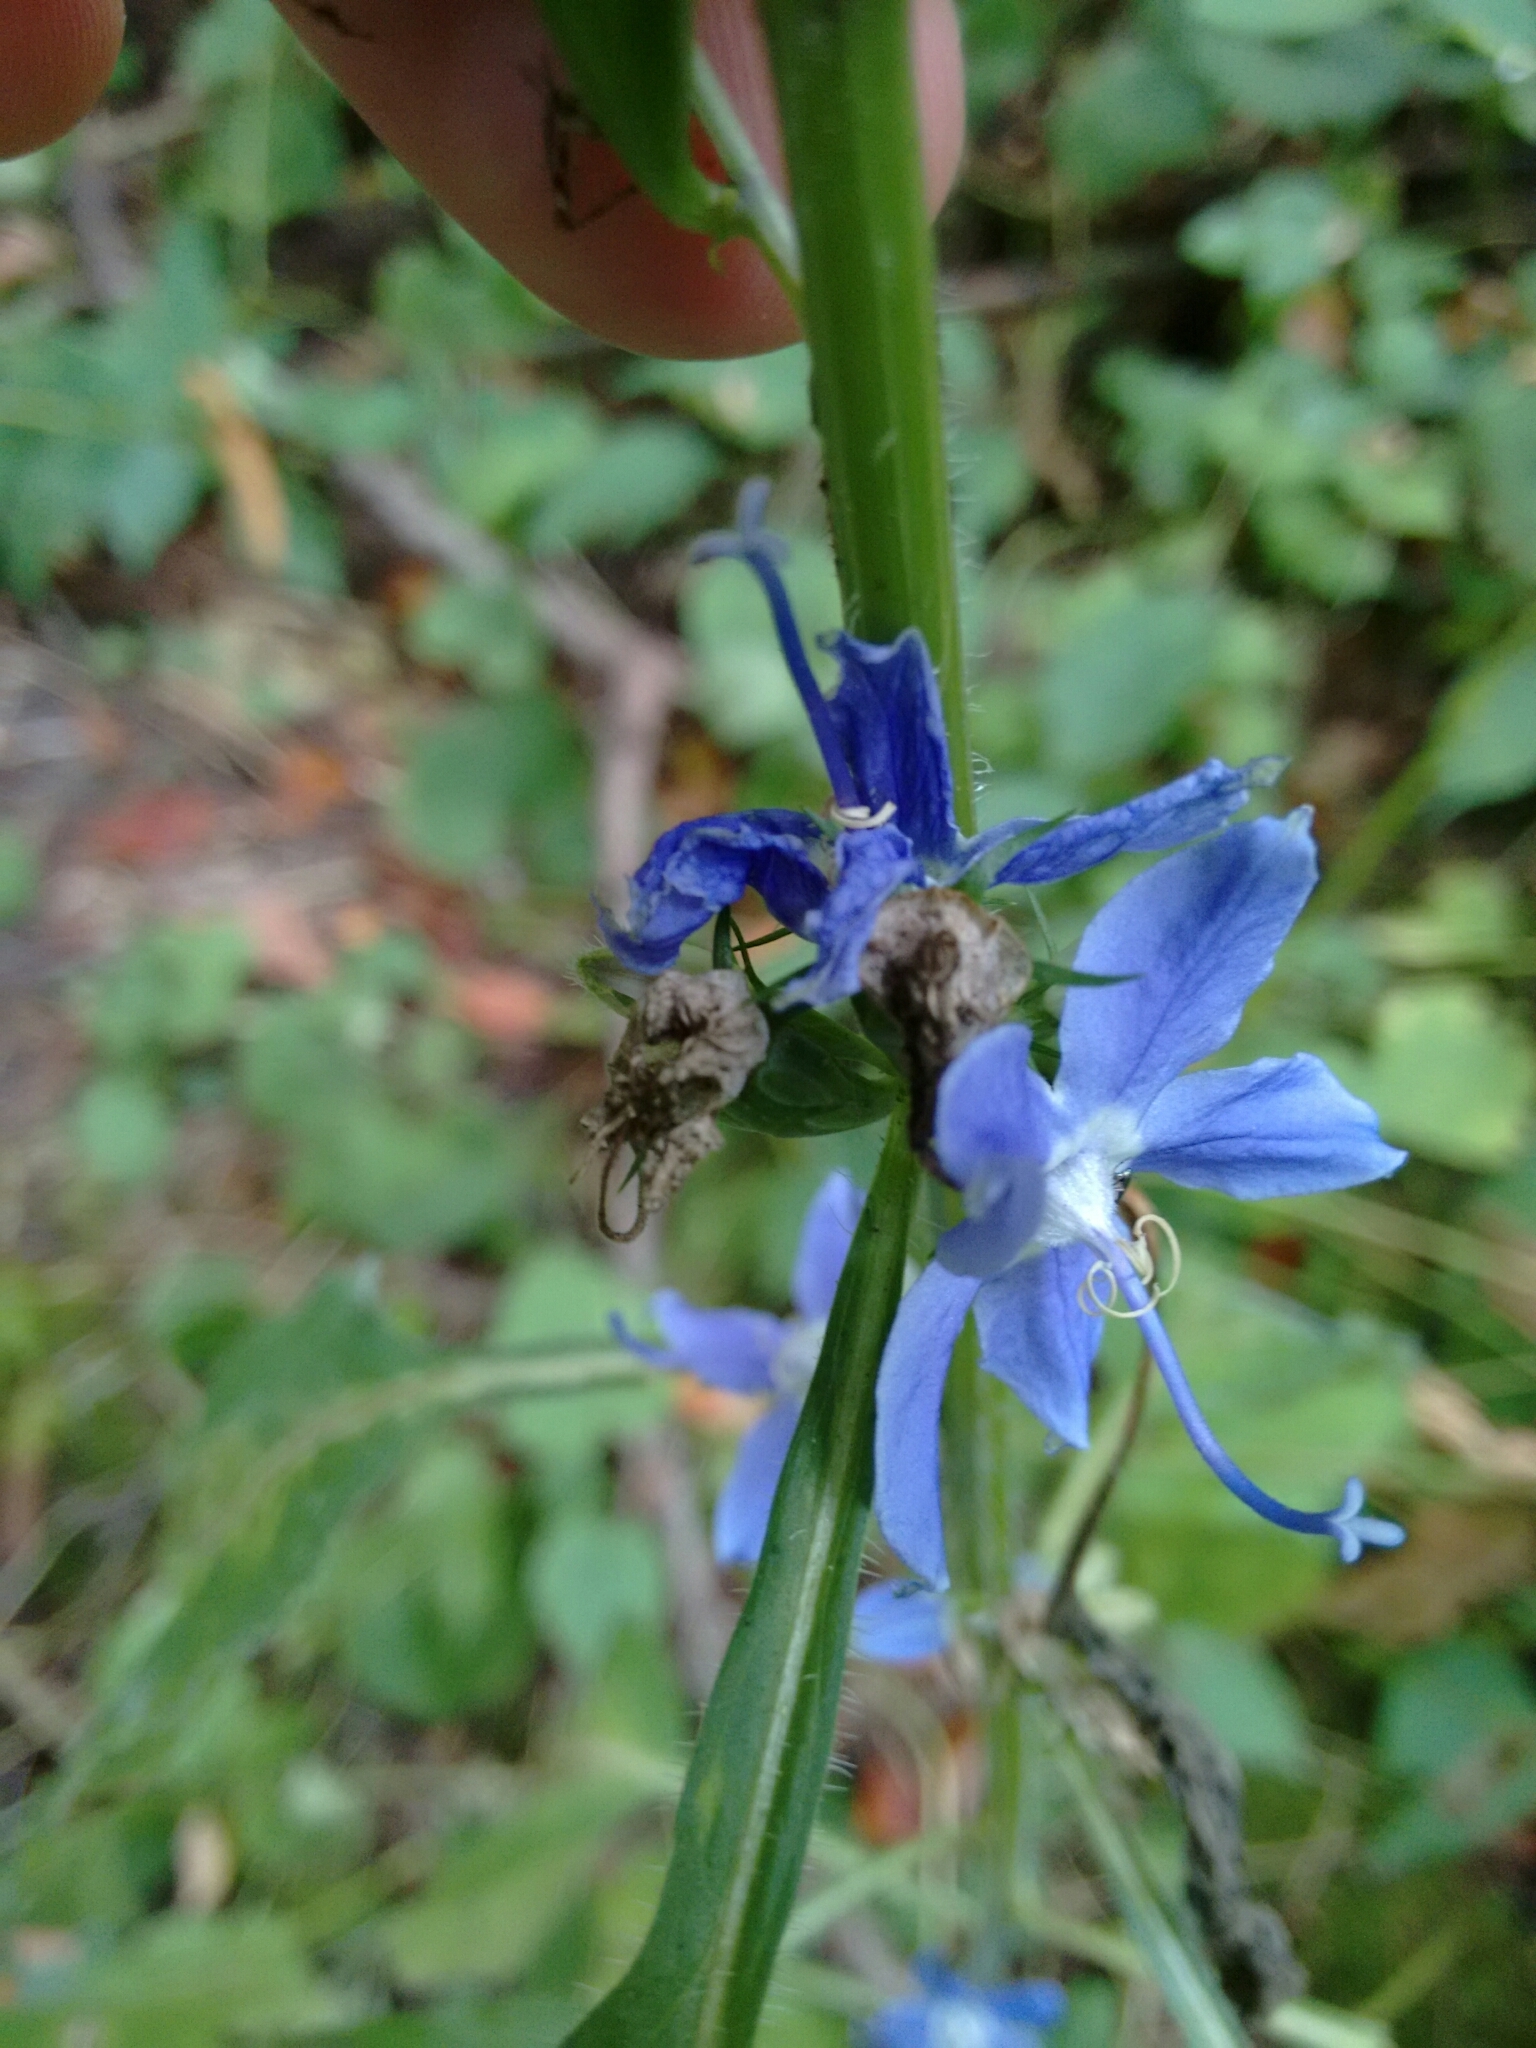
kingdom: Plantae
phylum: Tracheophyta
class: Magnoliopsida
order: Asterales
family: Campanulaceae
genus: Campanulastrum
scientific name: Campanulastrum americanum
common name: American bellflower
